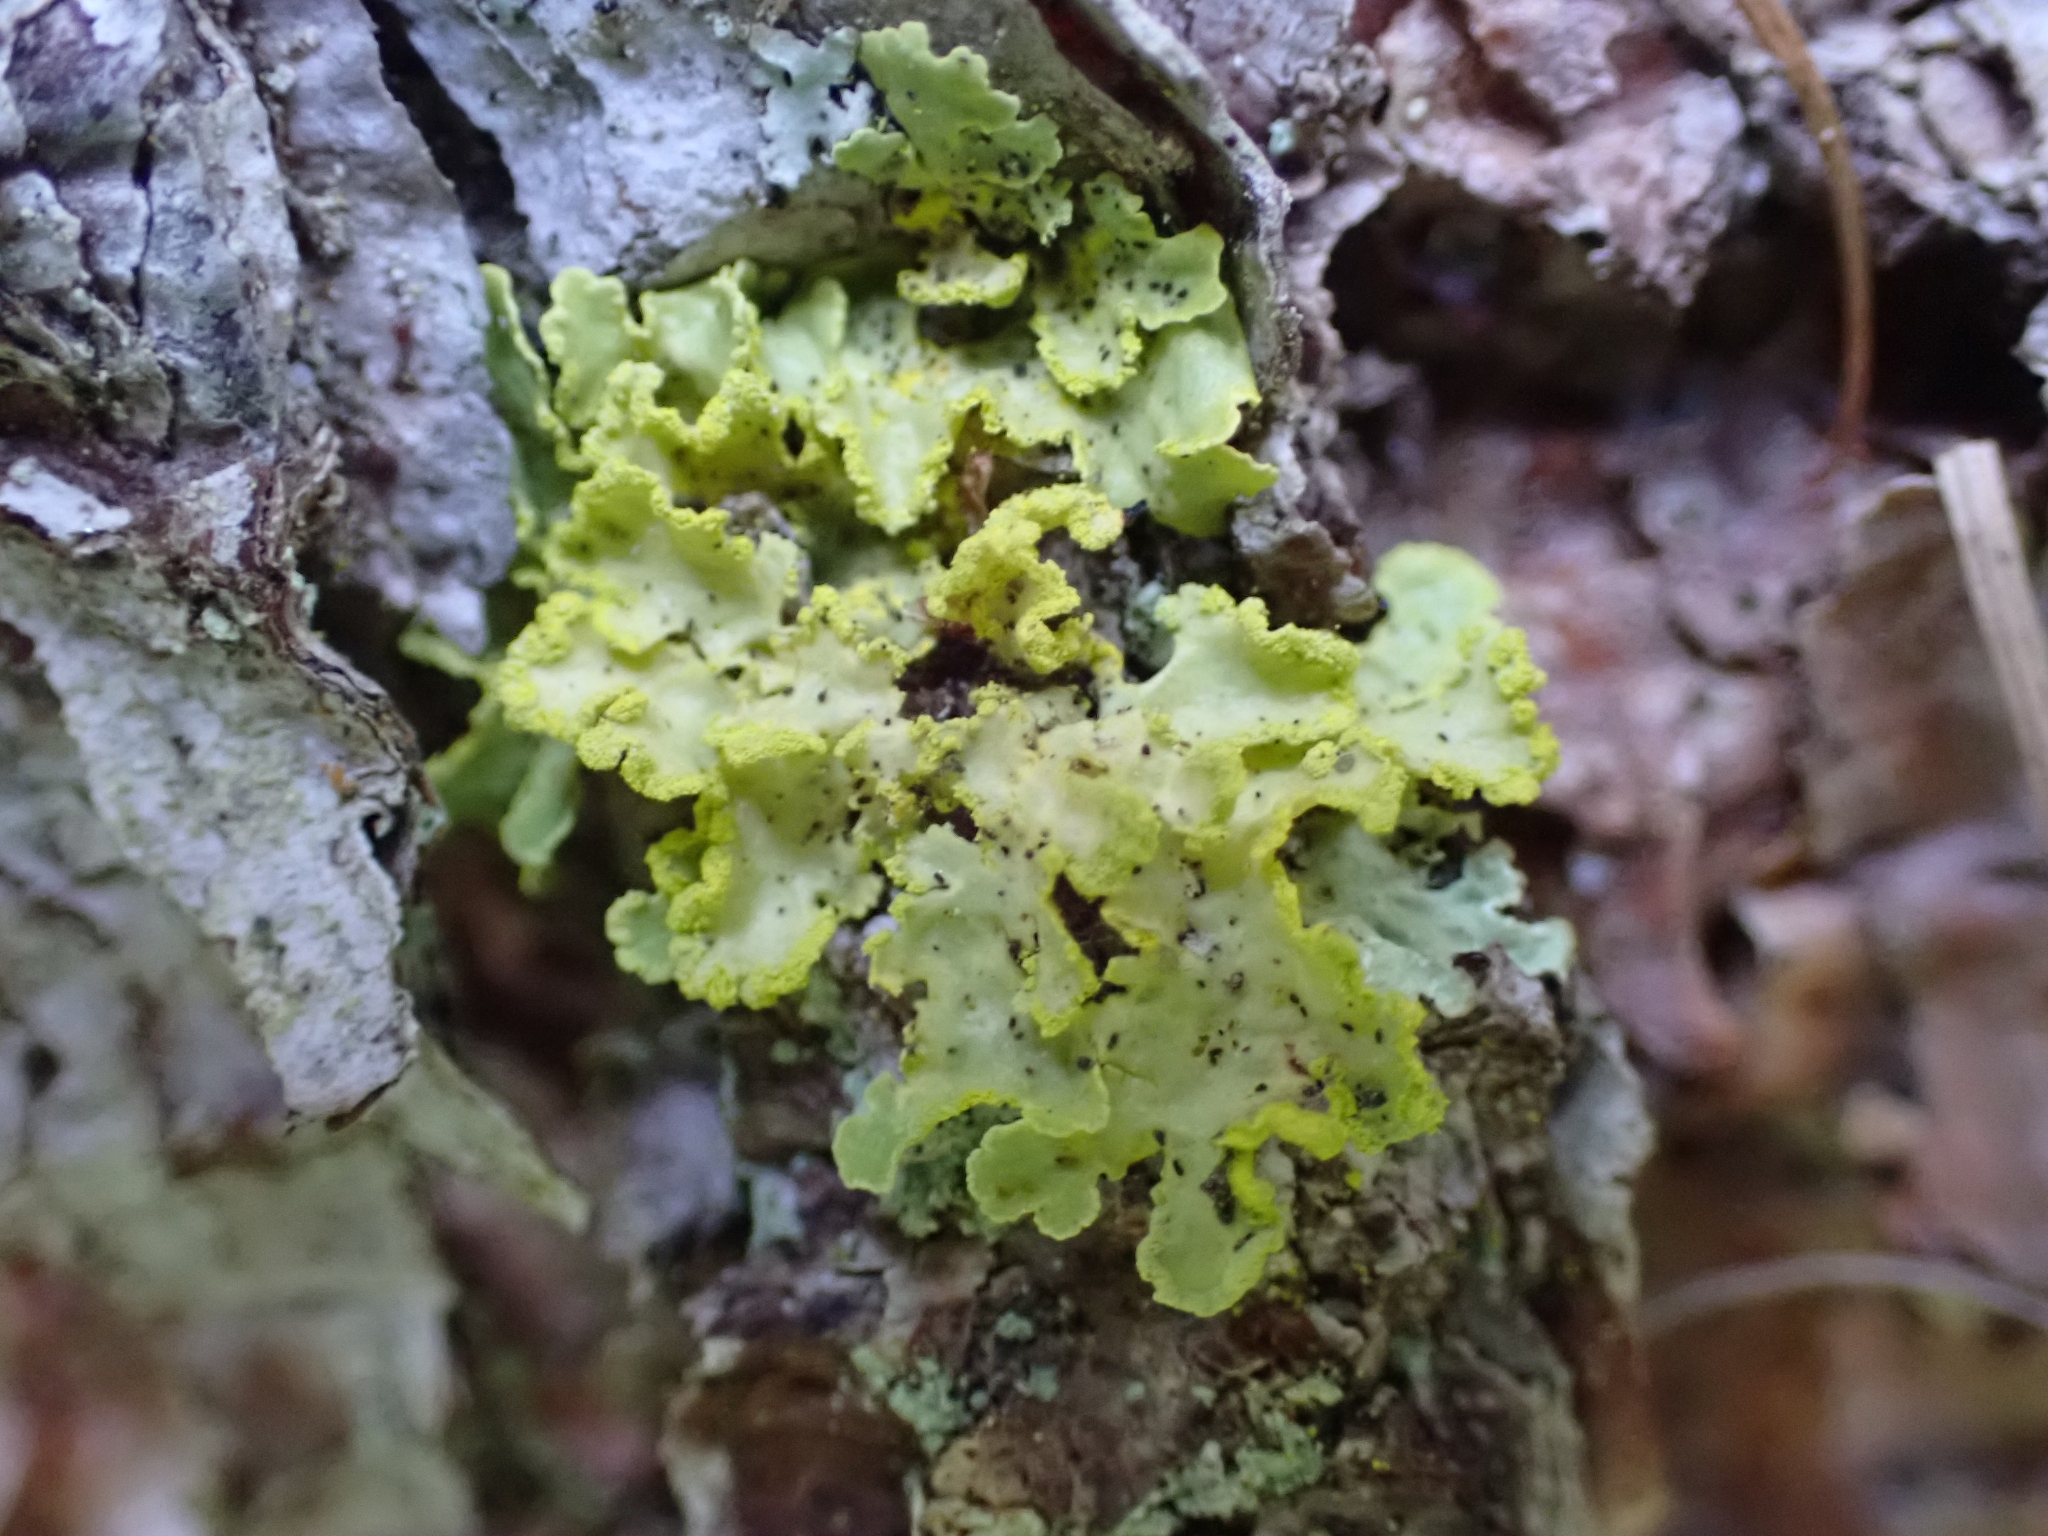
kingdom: Fungi
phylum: Ascomycota
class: Lecanoromycetes
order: Lecanorales
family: Parmeliaceae
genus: Vulpicida
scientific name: Vulpicida pinastri
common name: Powdered sunshine lichen
